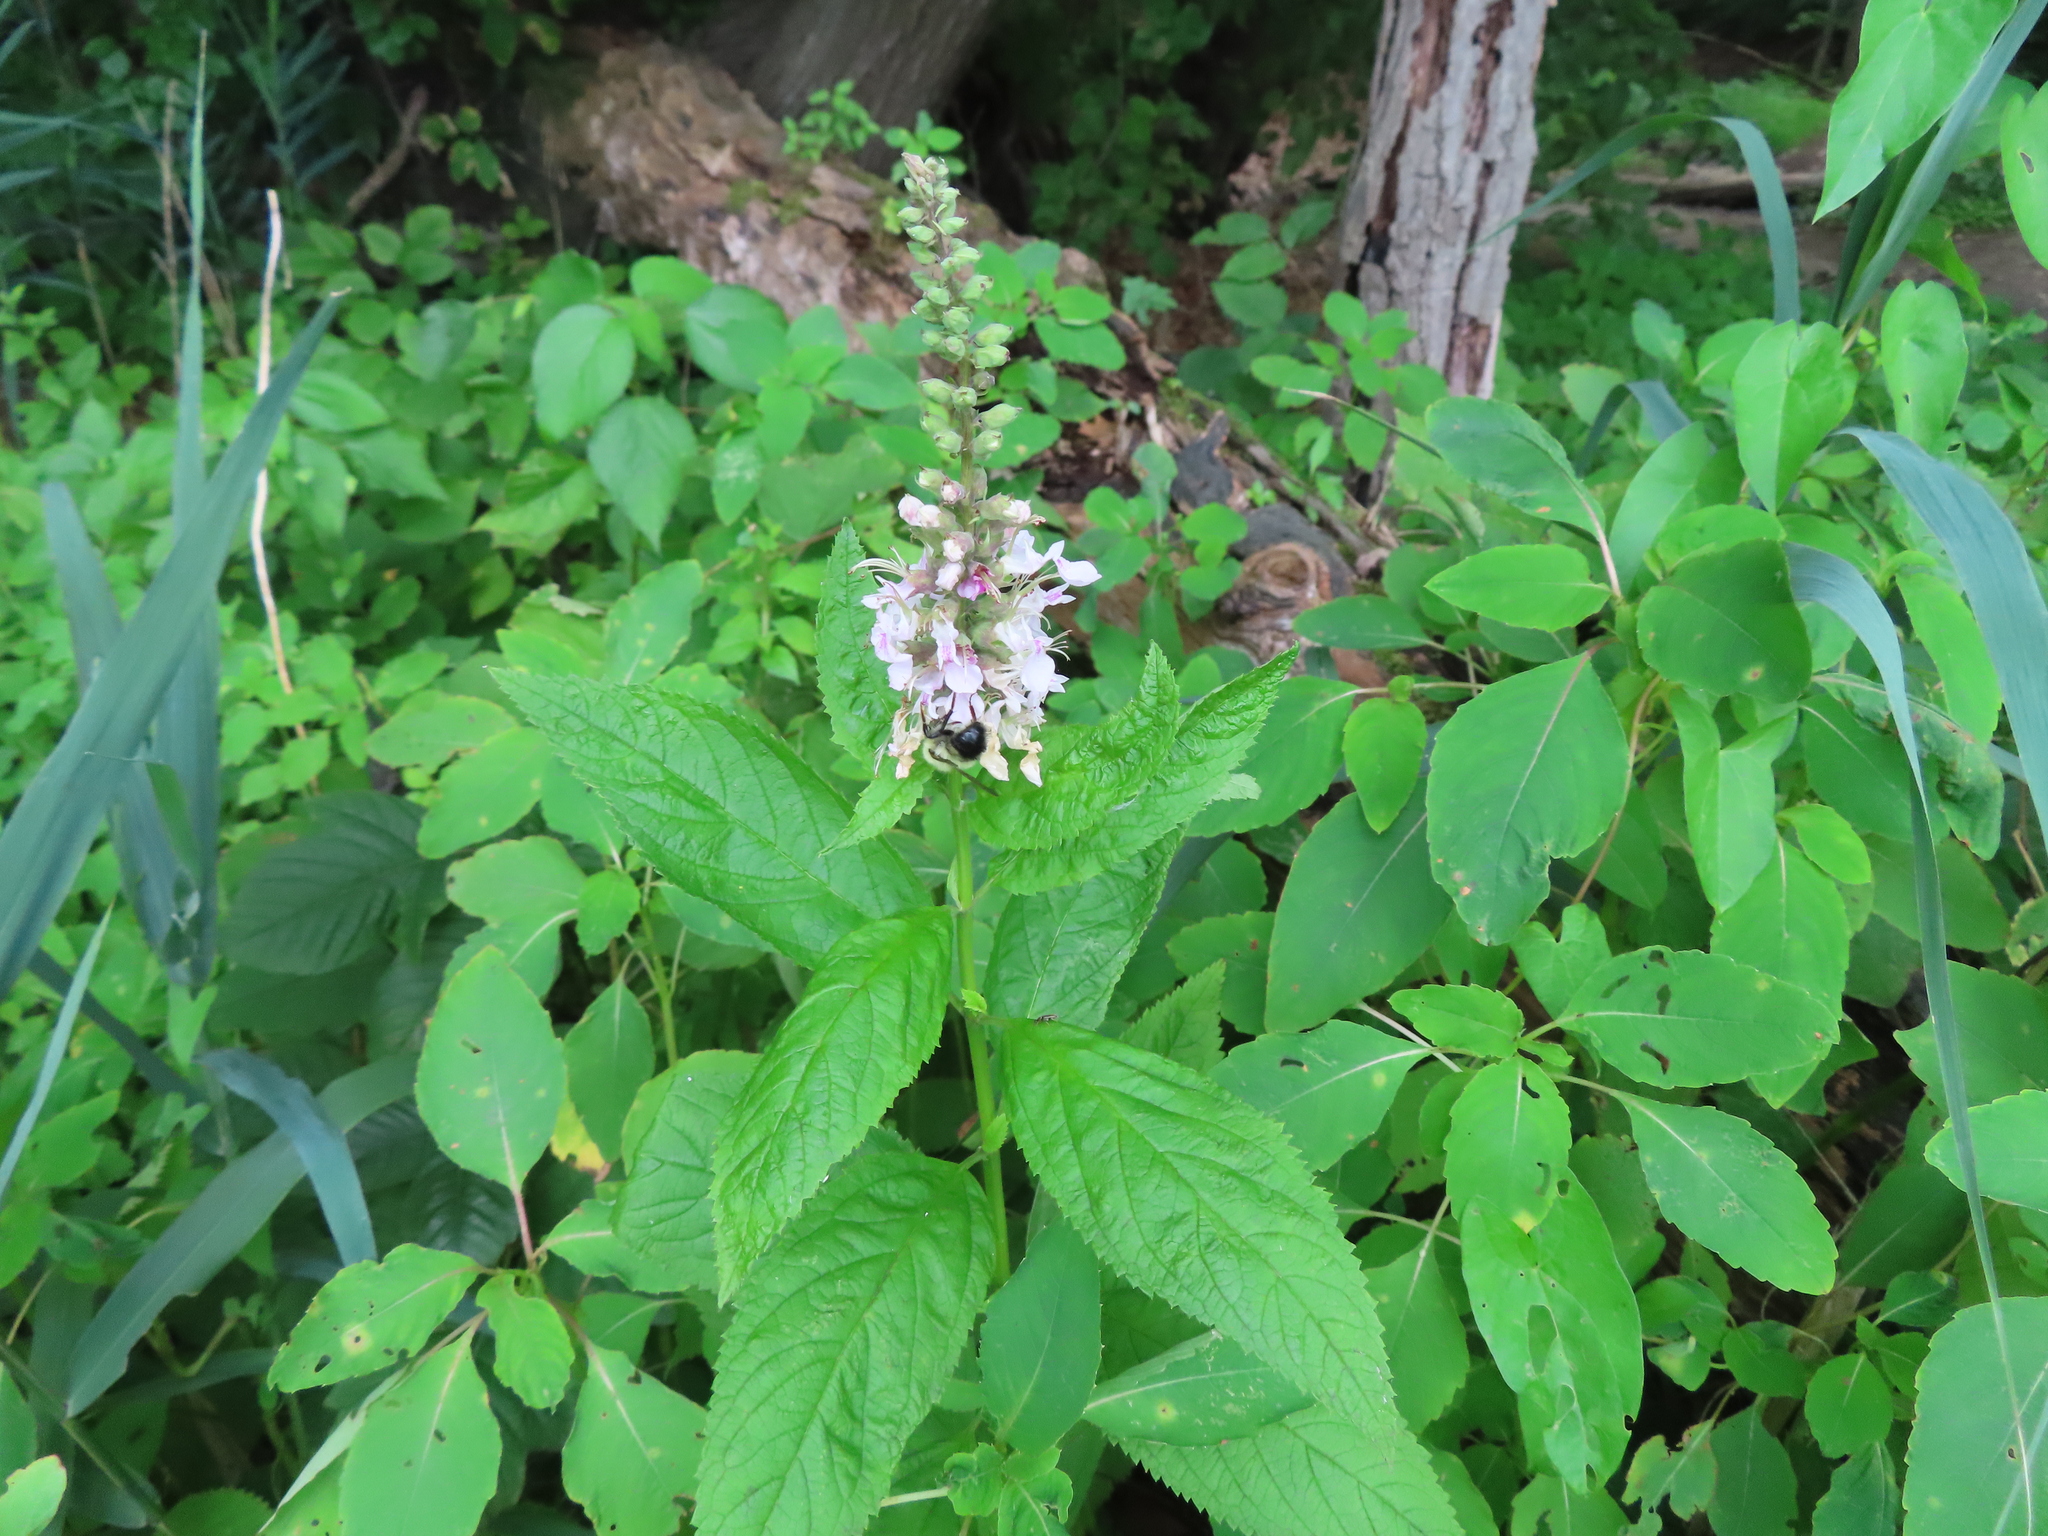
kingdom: Plantae
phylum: Tracheophyta
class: Magnoliopsida
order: Lamiales
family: Lamiaceae
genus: Teucrium
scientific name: Teucrium canadense
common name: American germander
